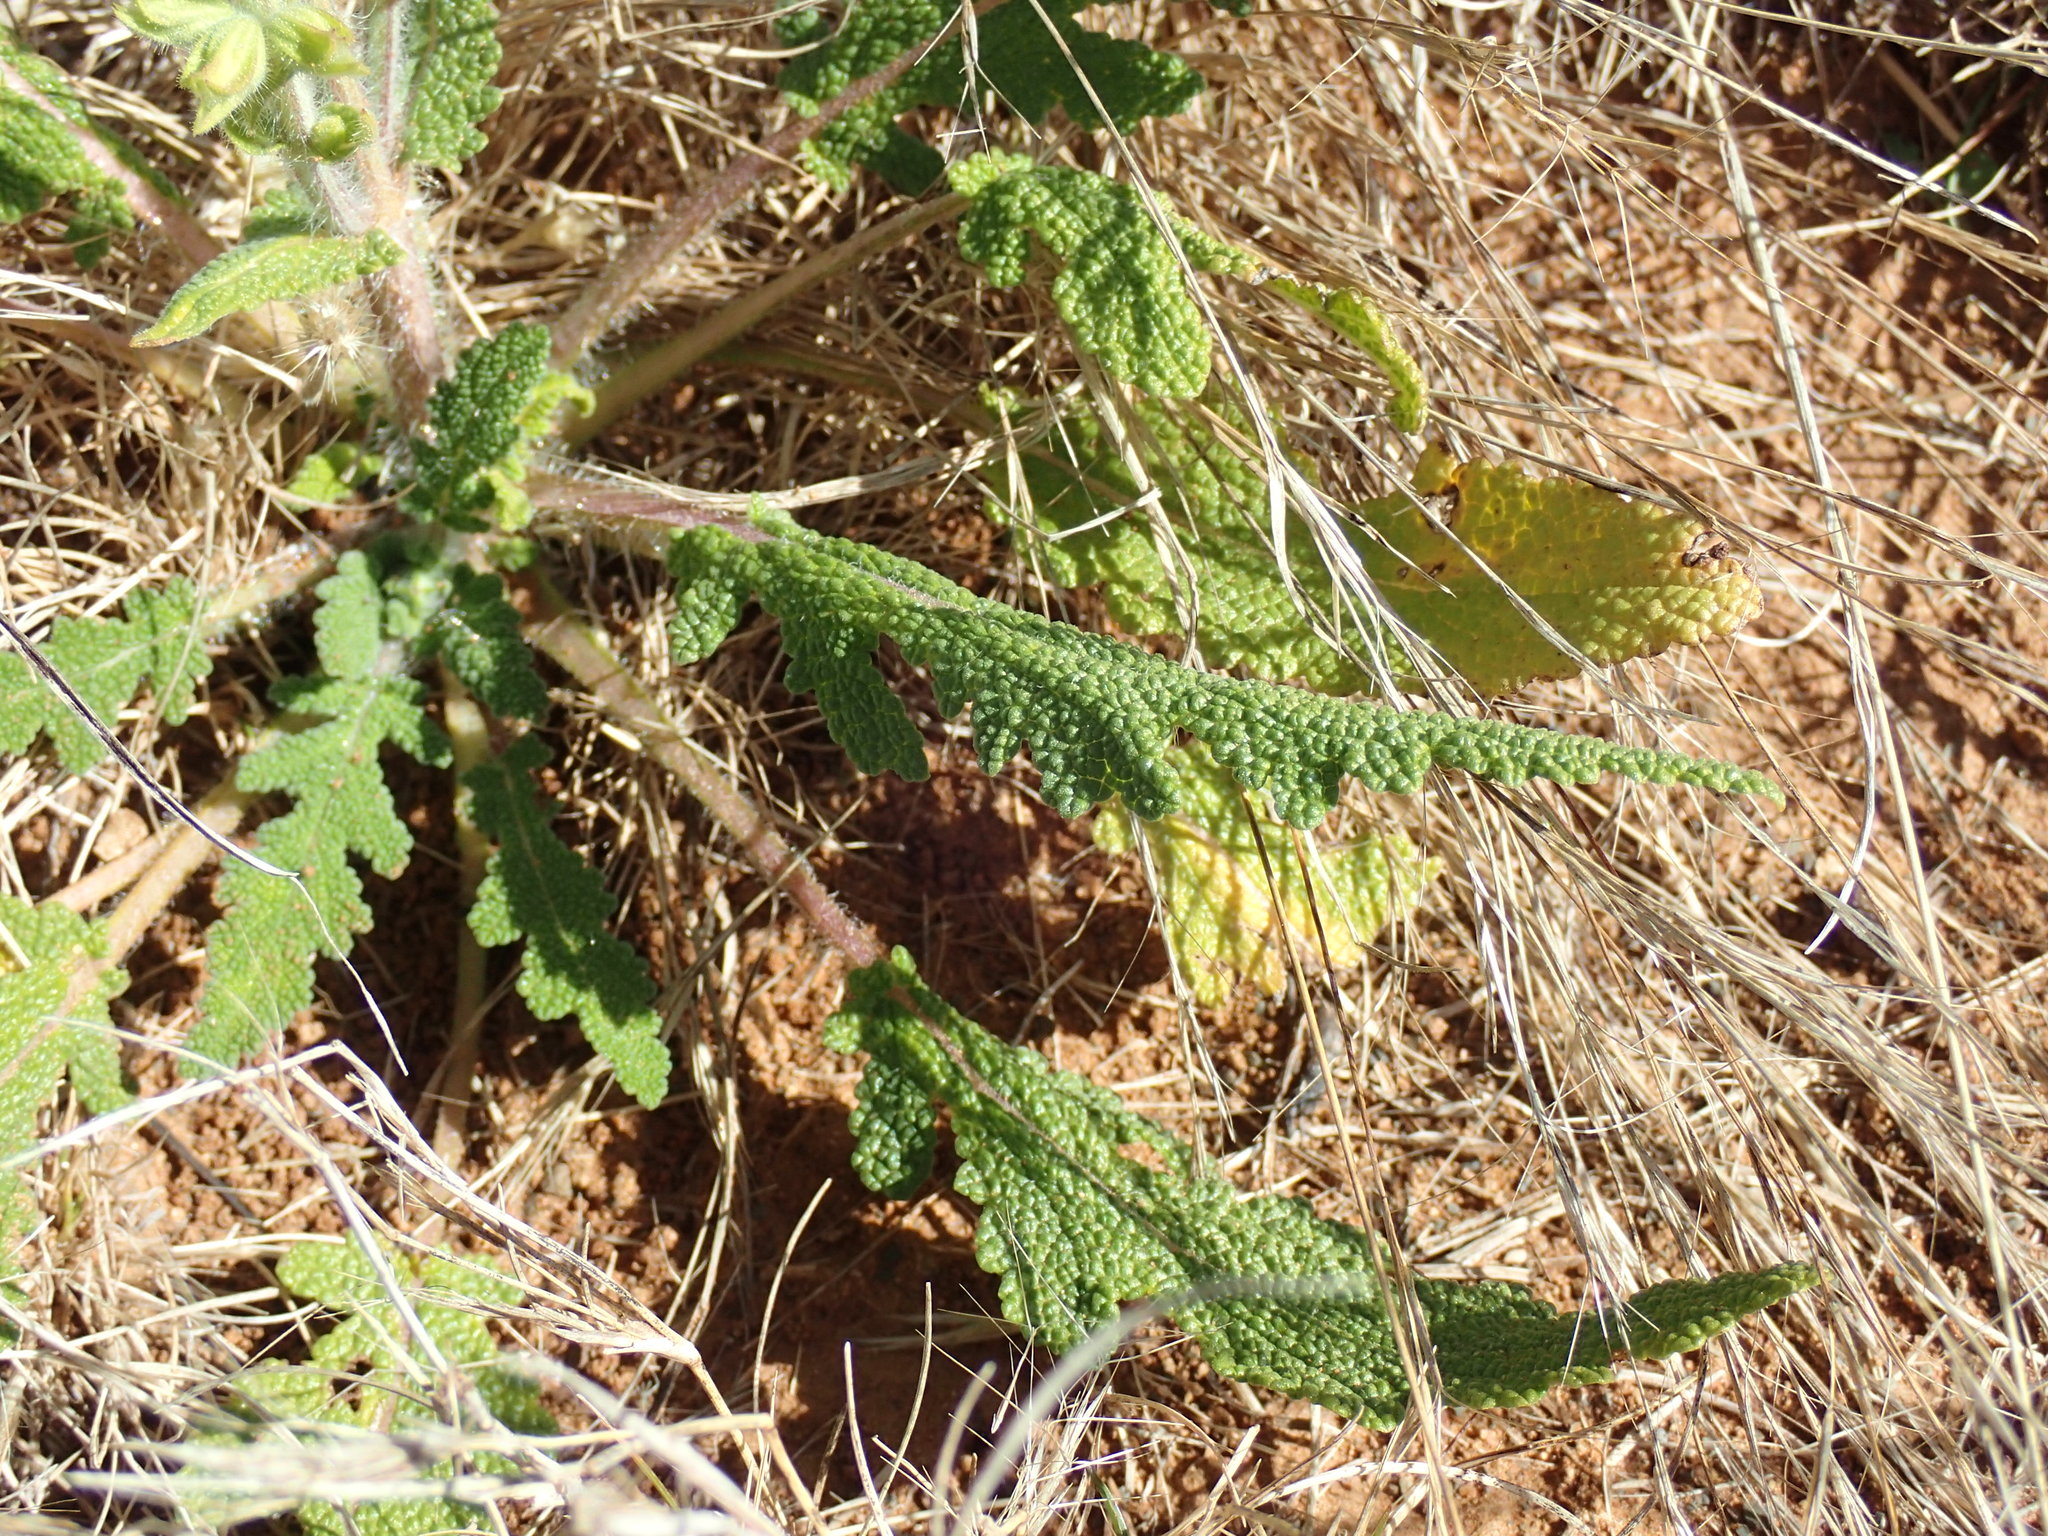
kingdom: Plantae
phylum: Tracheophyta
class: Magnoliopsida
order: Lamiales
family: Lamiaceae
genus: Salvia
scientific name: Salvia verbenaca
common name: Wild clary
